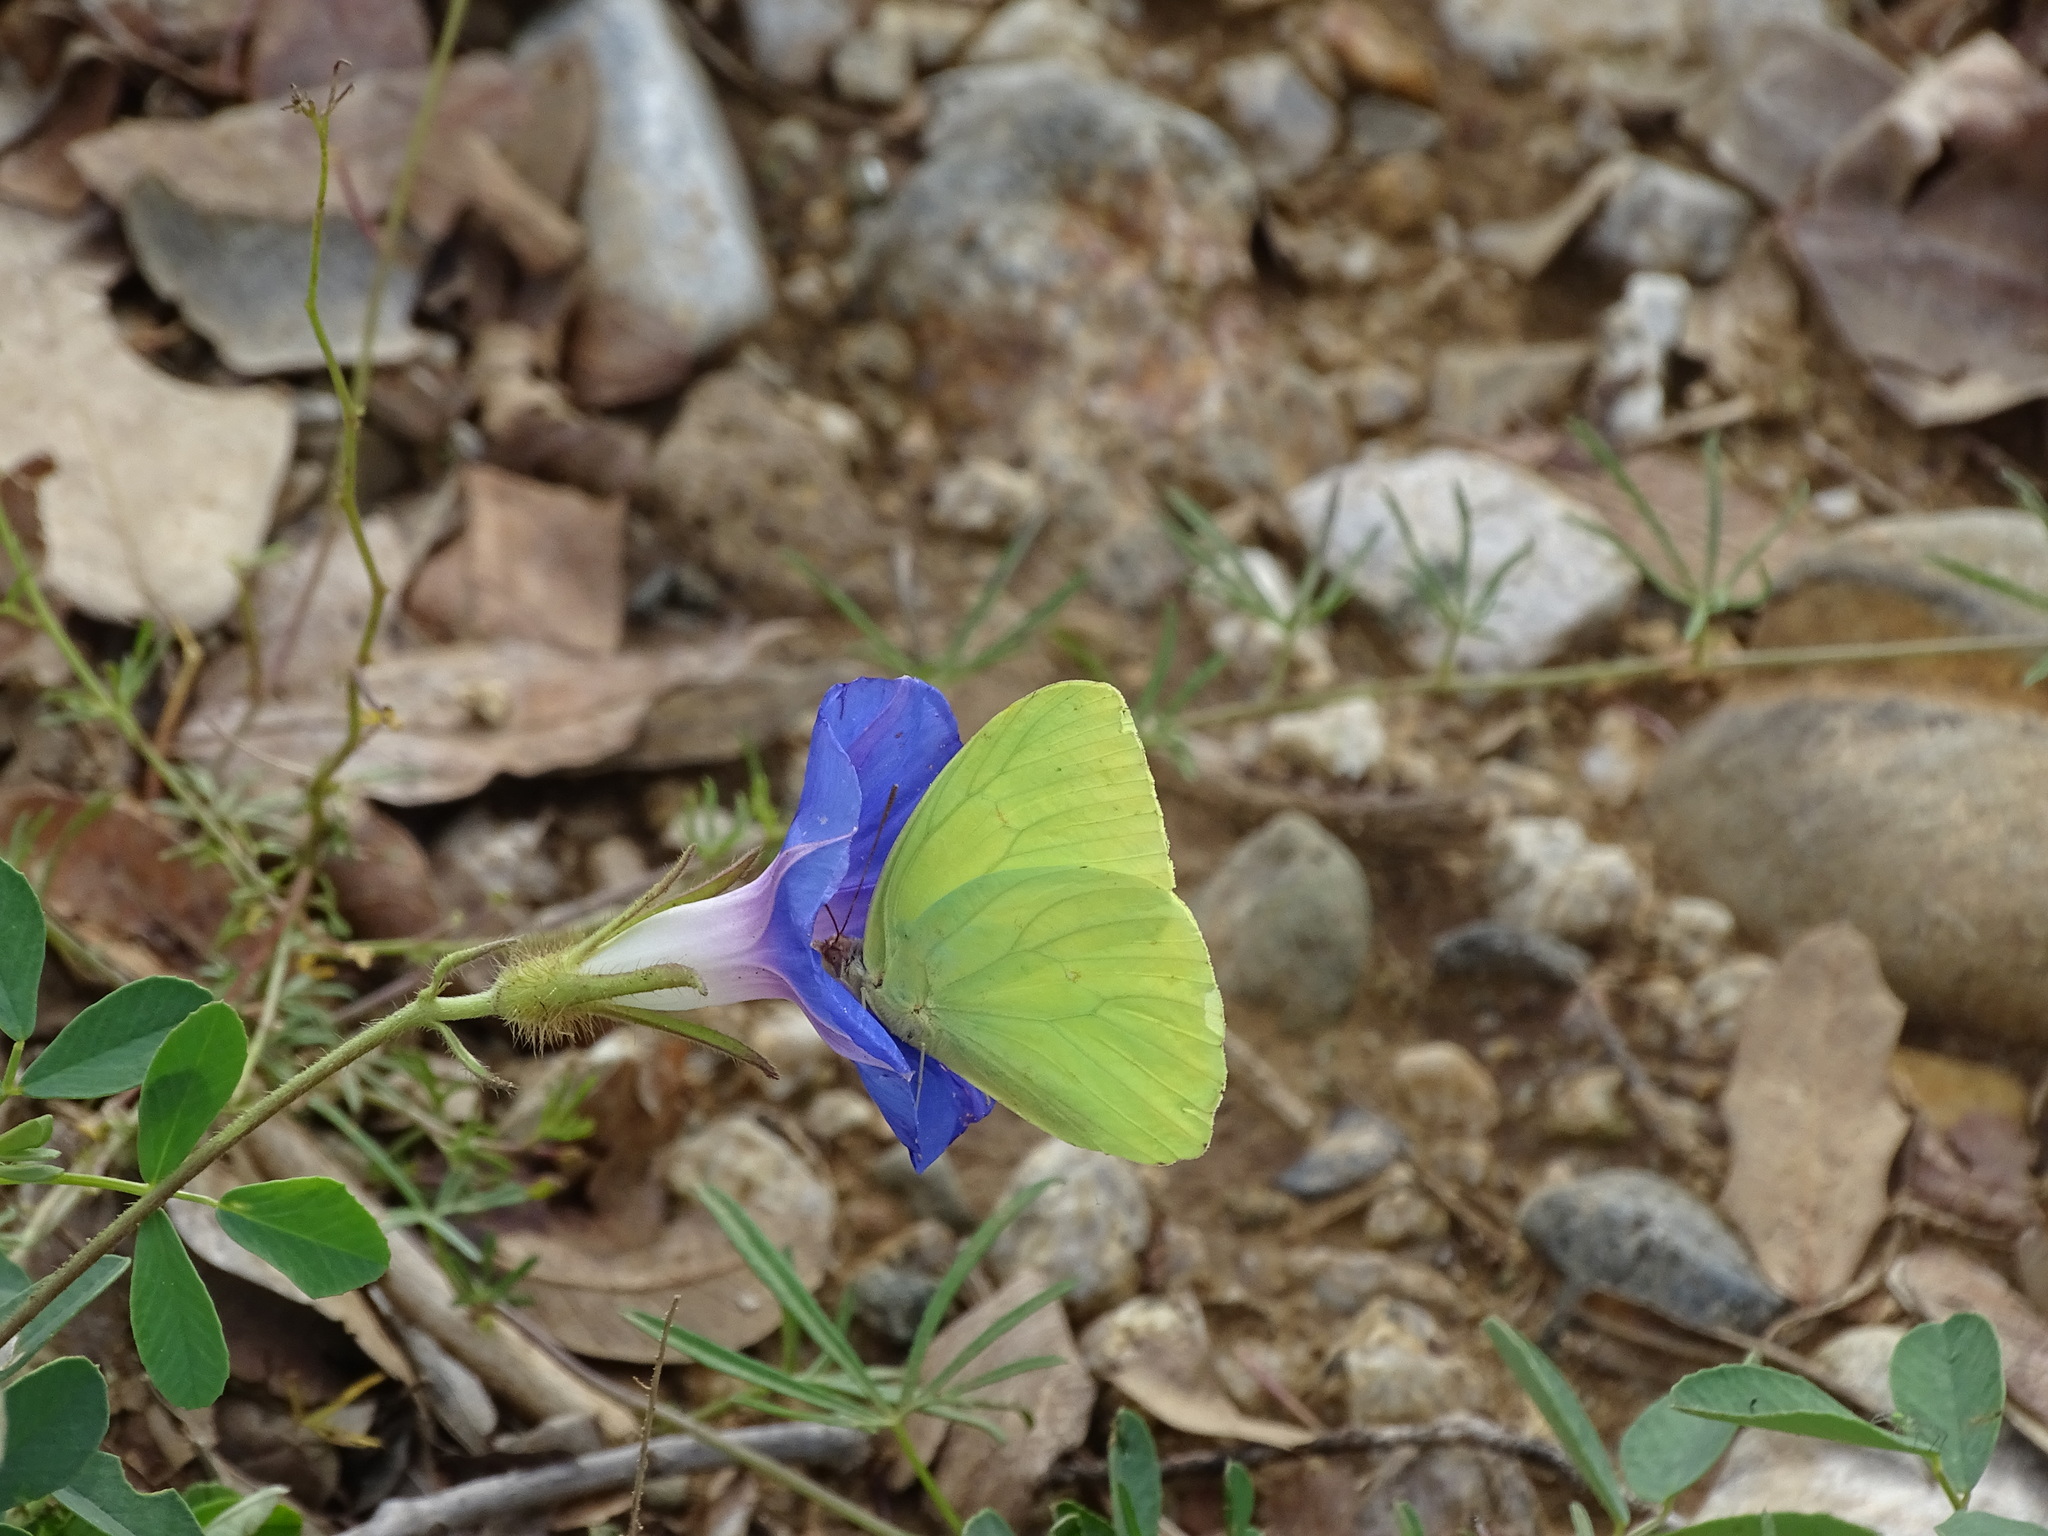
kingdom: Animalia
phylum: Arthropoda
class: Insecta
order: Lepidoptera
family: Pieridae
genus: Phoebis
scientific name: Phoebis sennae
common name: Cloudless sulphur
